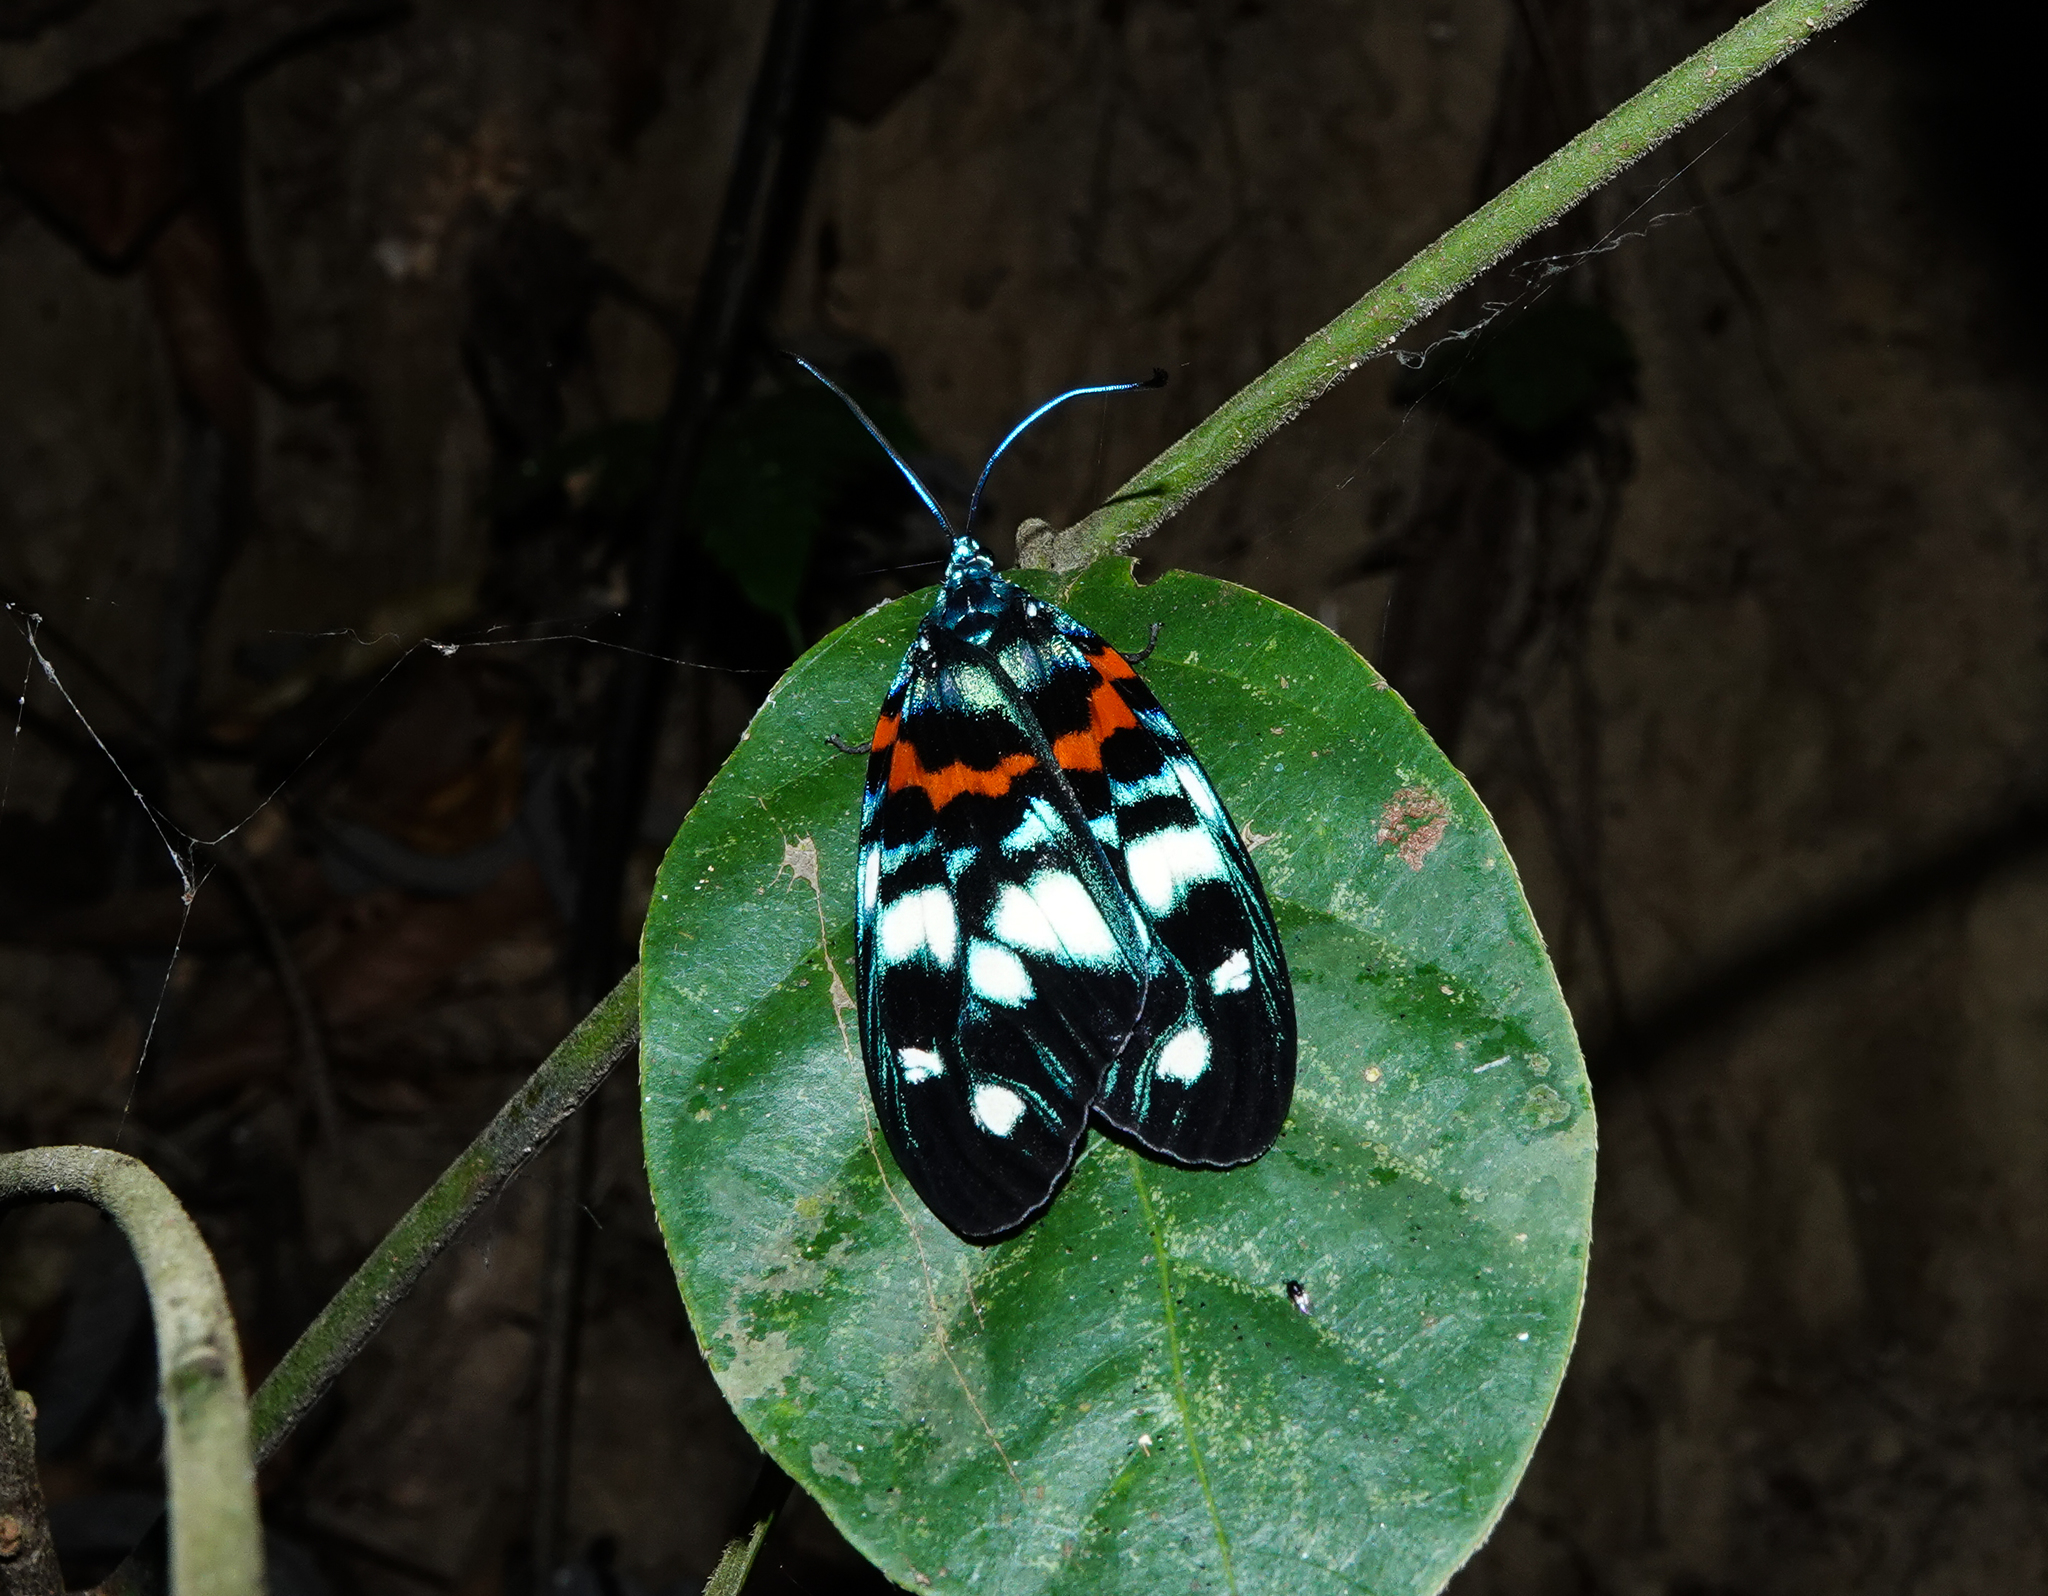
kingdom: Animalia
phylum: Arthropoda
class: Insecta
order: Lepidoptera
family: Zygaenidae
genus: Erasmia
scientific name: Erasmia pulchella
